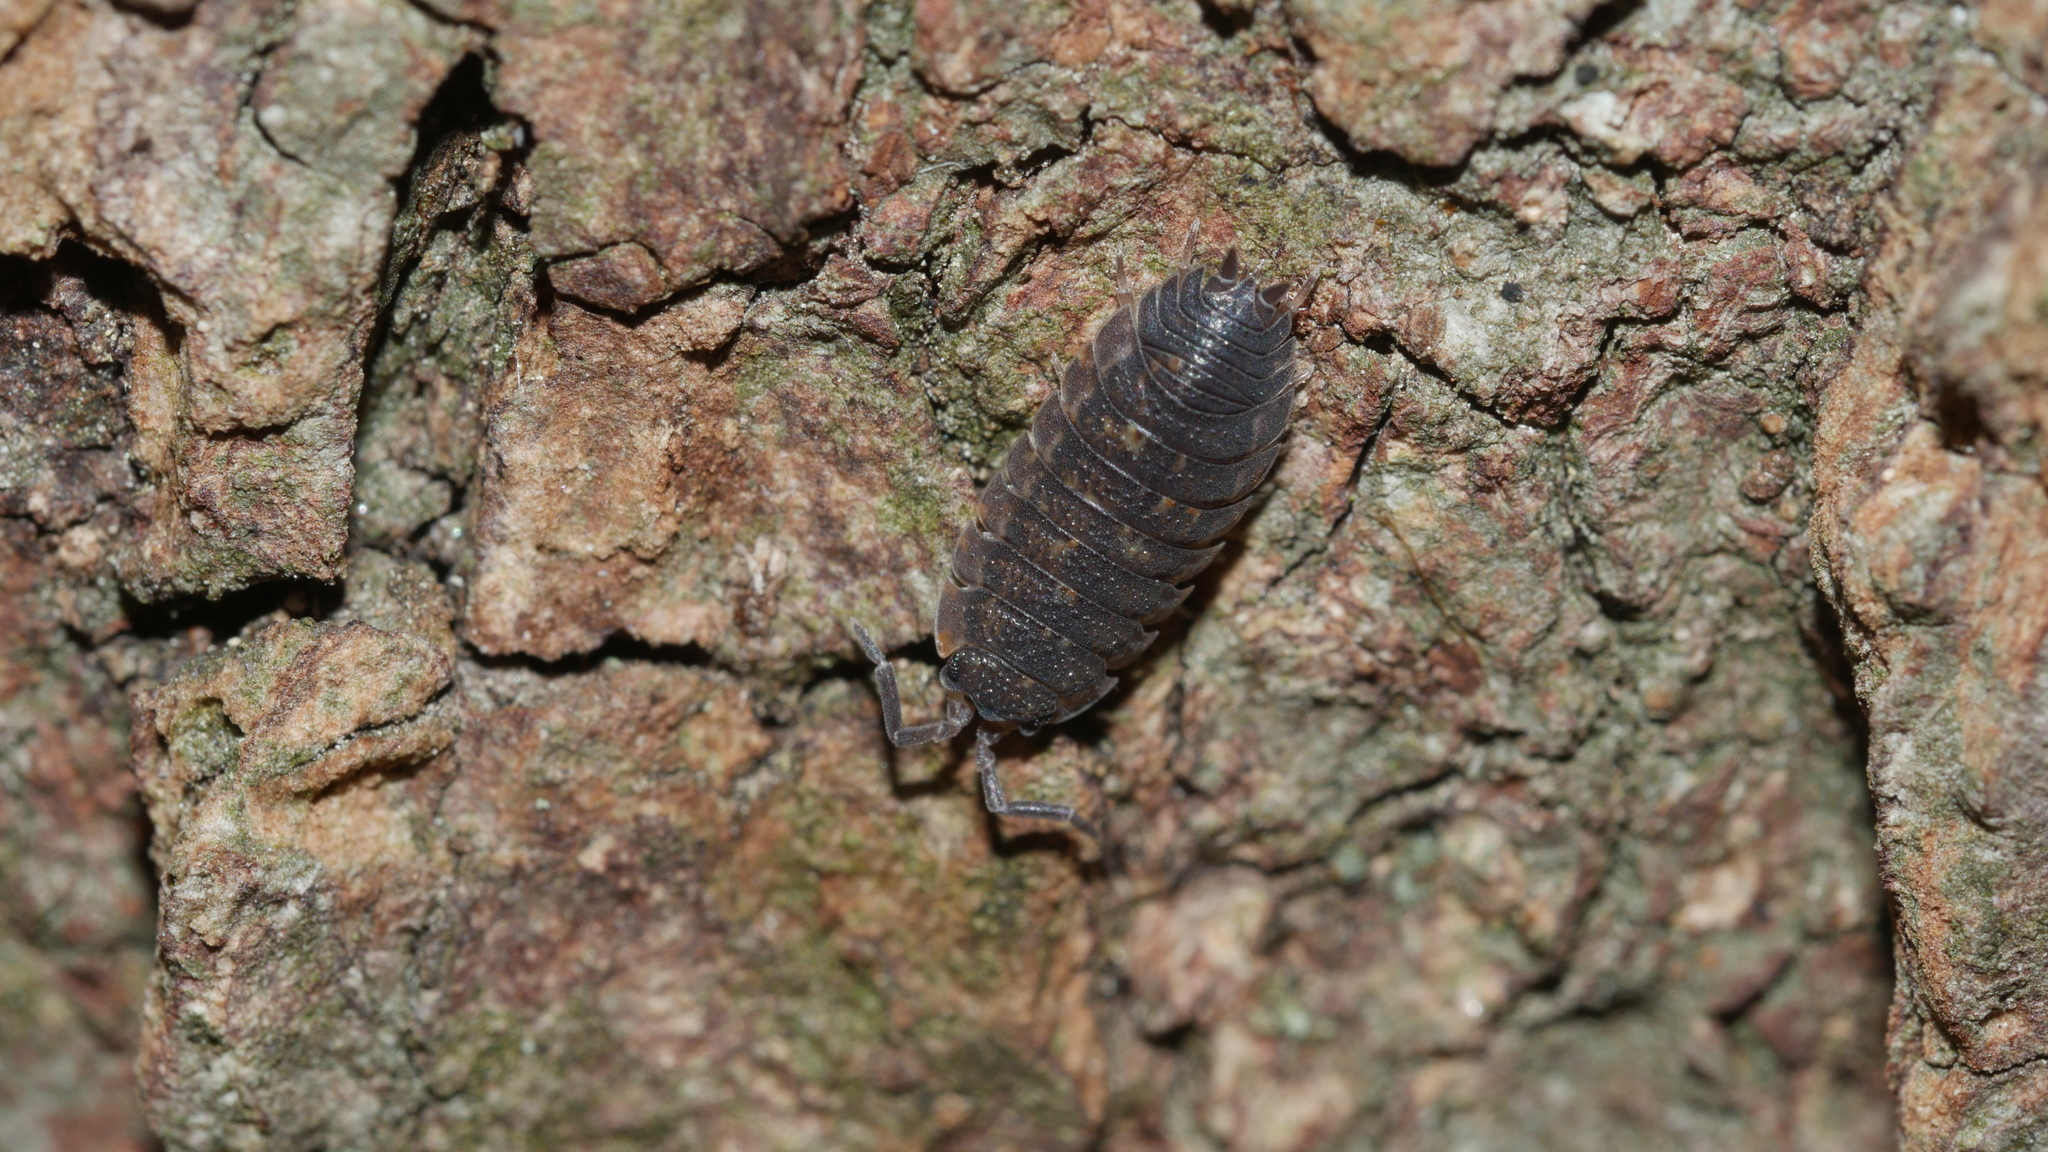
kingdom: Animalia
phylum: Arthropoda
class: Malacostraca
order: Isopoda
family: Porcellionidae
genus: Porcellio
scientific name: Porcellio scaber
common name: Common rough woodlouse
